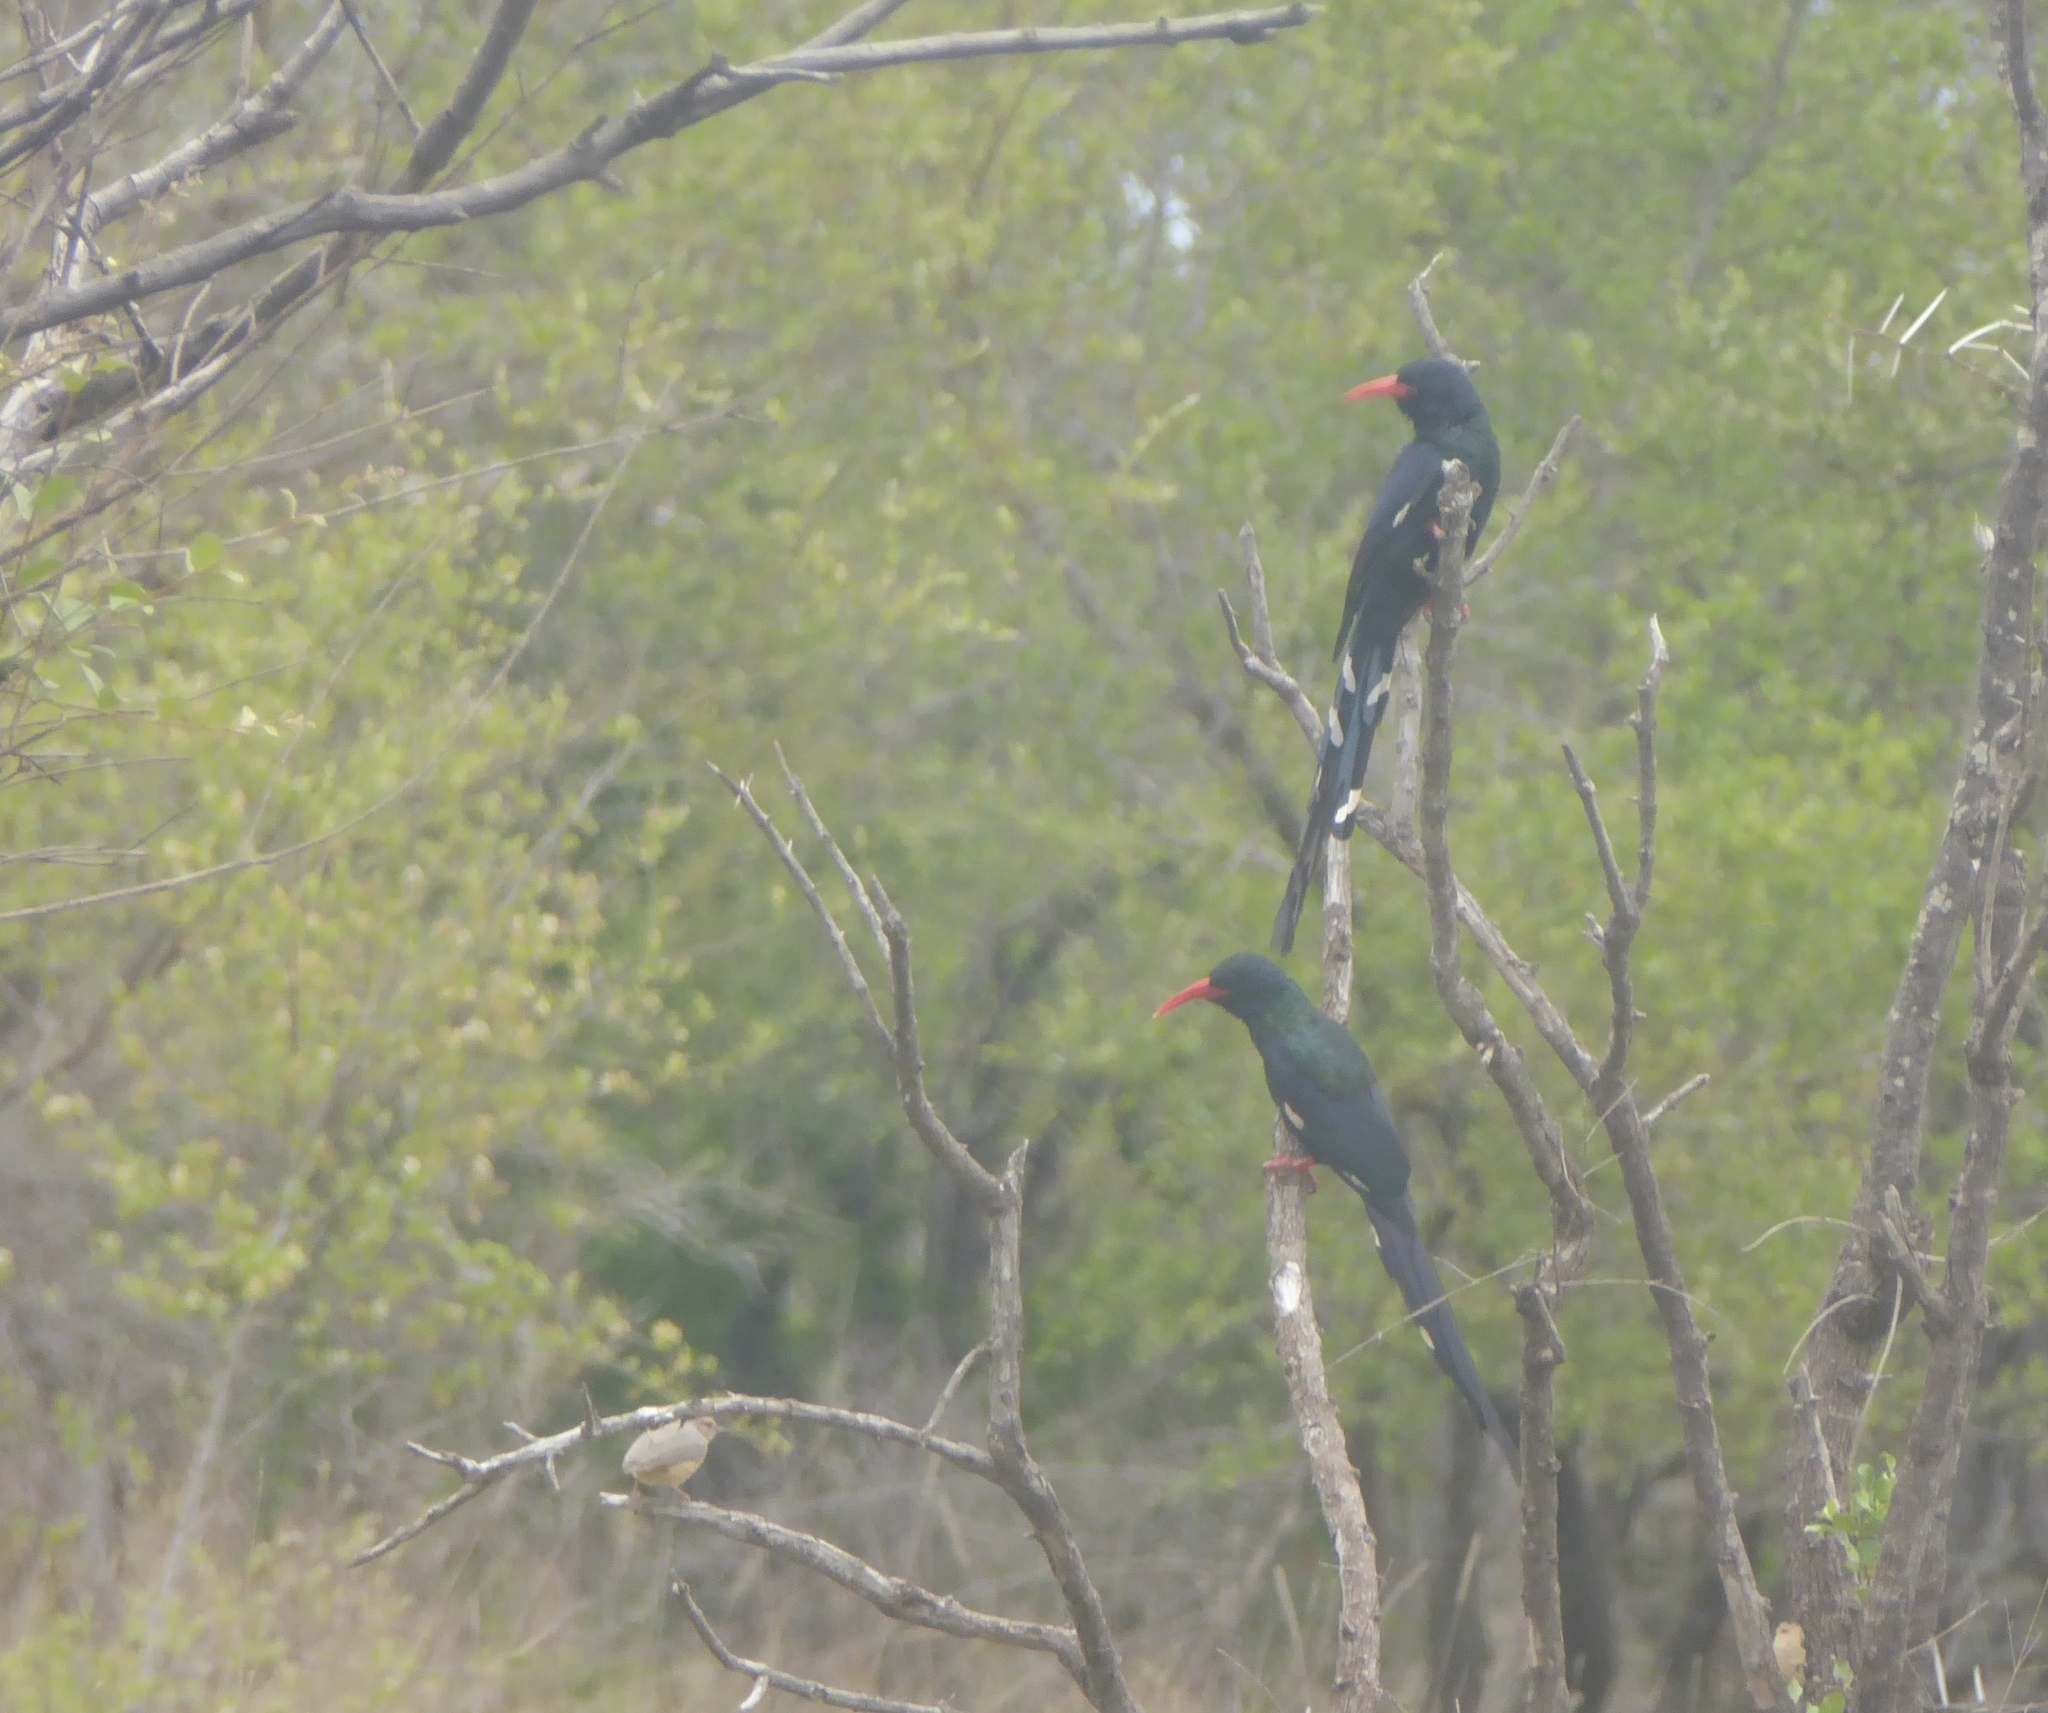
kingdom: Animalia
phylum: Chordata
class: Aves
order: Bucerotiformes
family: Phoeniculidae
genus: Phoeniculus
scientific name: Phoeniculus purpureus
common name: Green woodhoopoe
